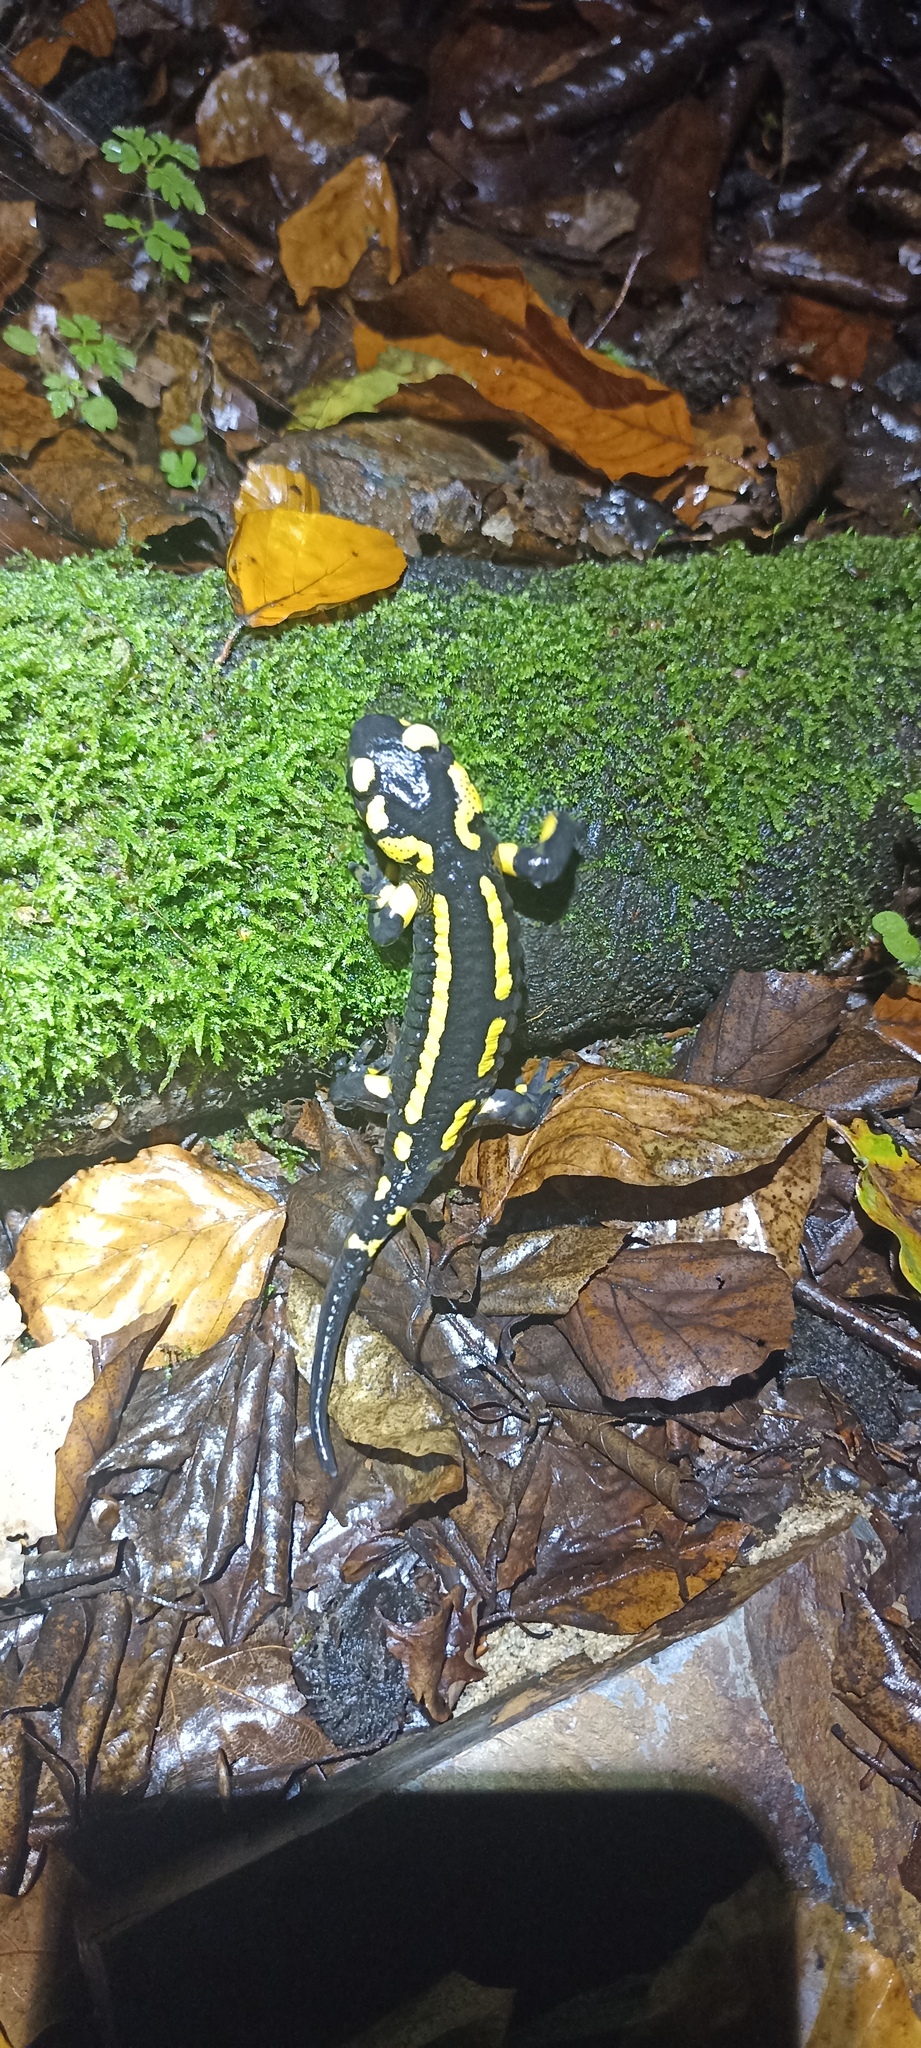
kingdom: Animalia
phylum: Chordata
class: Amphibia
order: Caudata
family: Salamandridae
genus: Salamandra
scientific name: Salamandra salamandra
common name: Fire salamander
